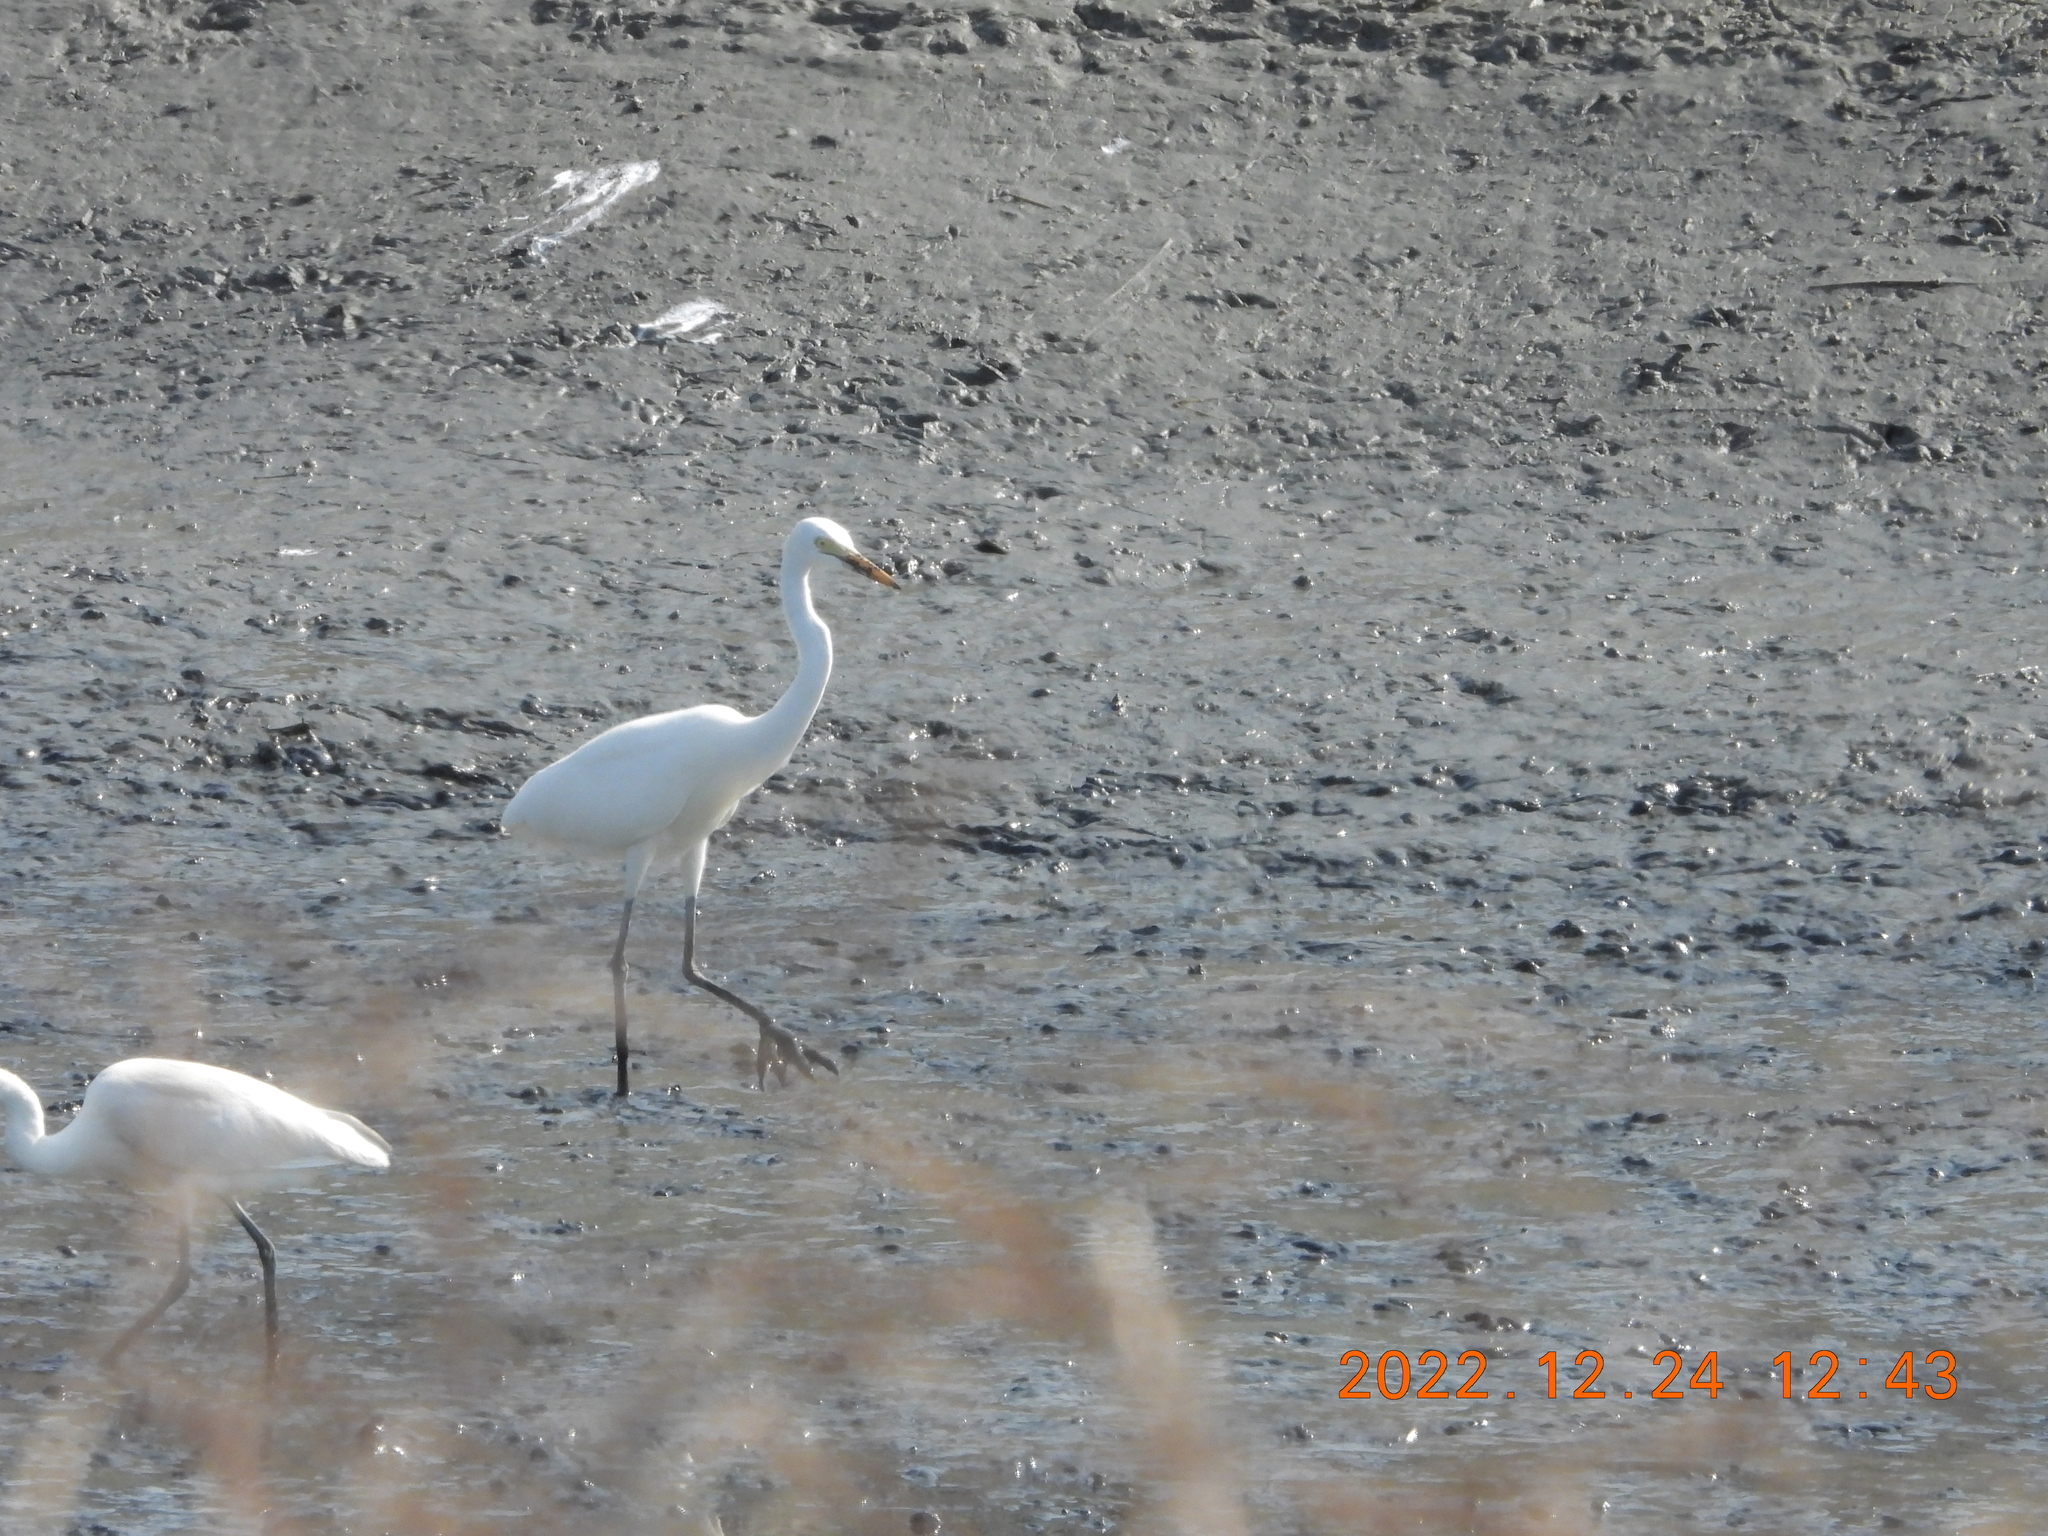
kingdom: Animalia
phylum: Chordata
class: Aves
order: Pelecaniformes
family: Ardeidae
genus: Egretta
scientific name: Egretta intermedia
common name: Intermediate egret
